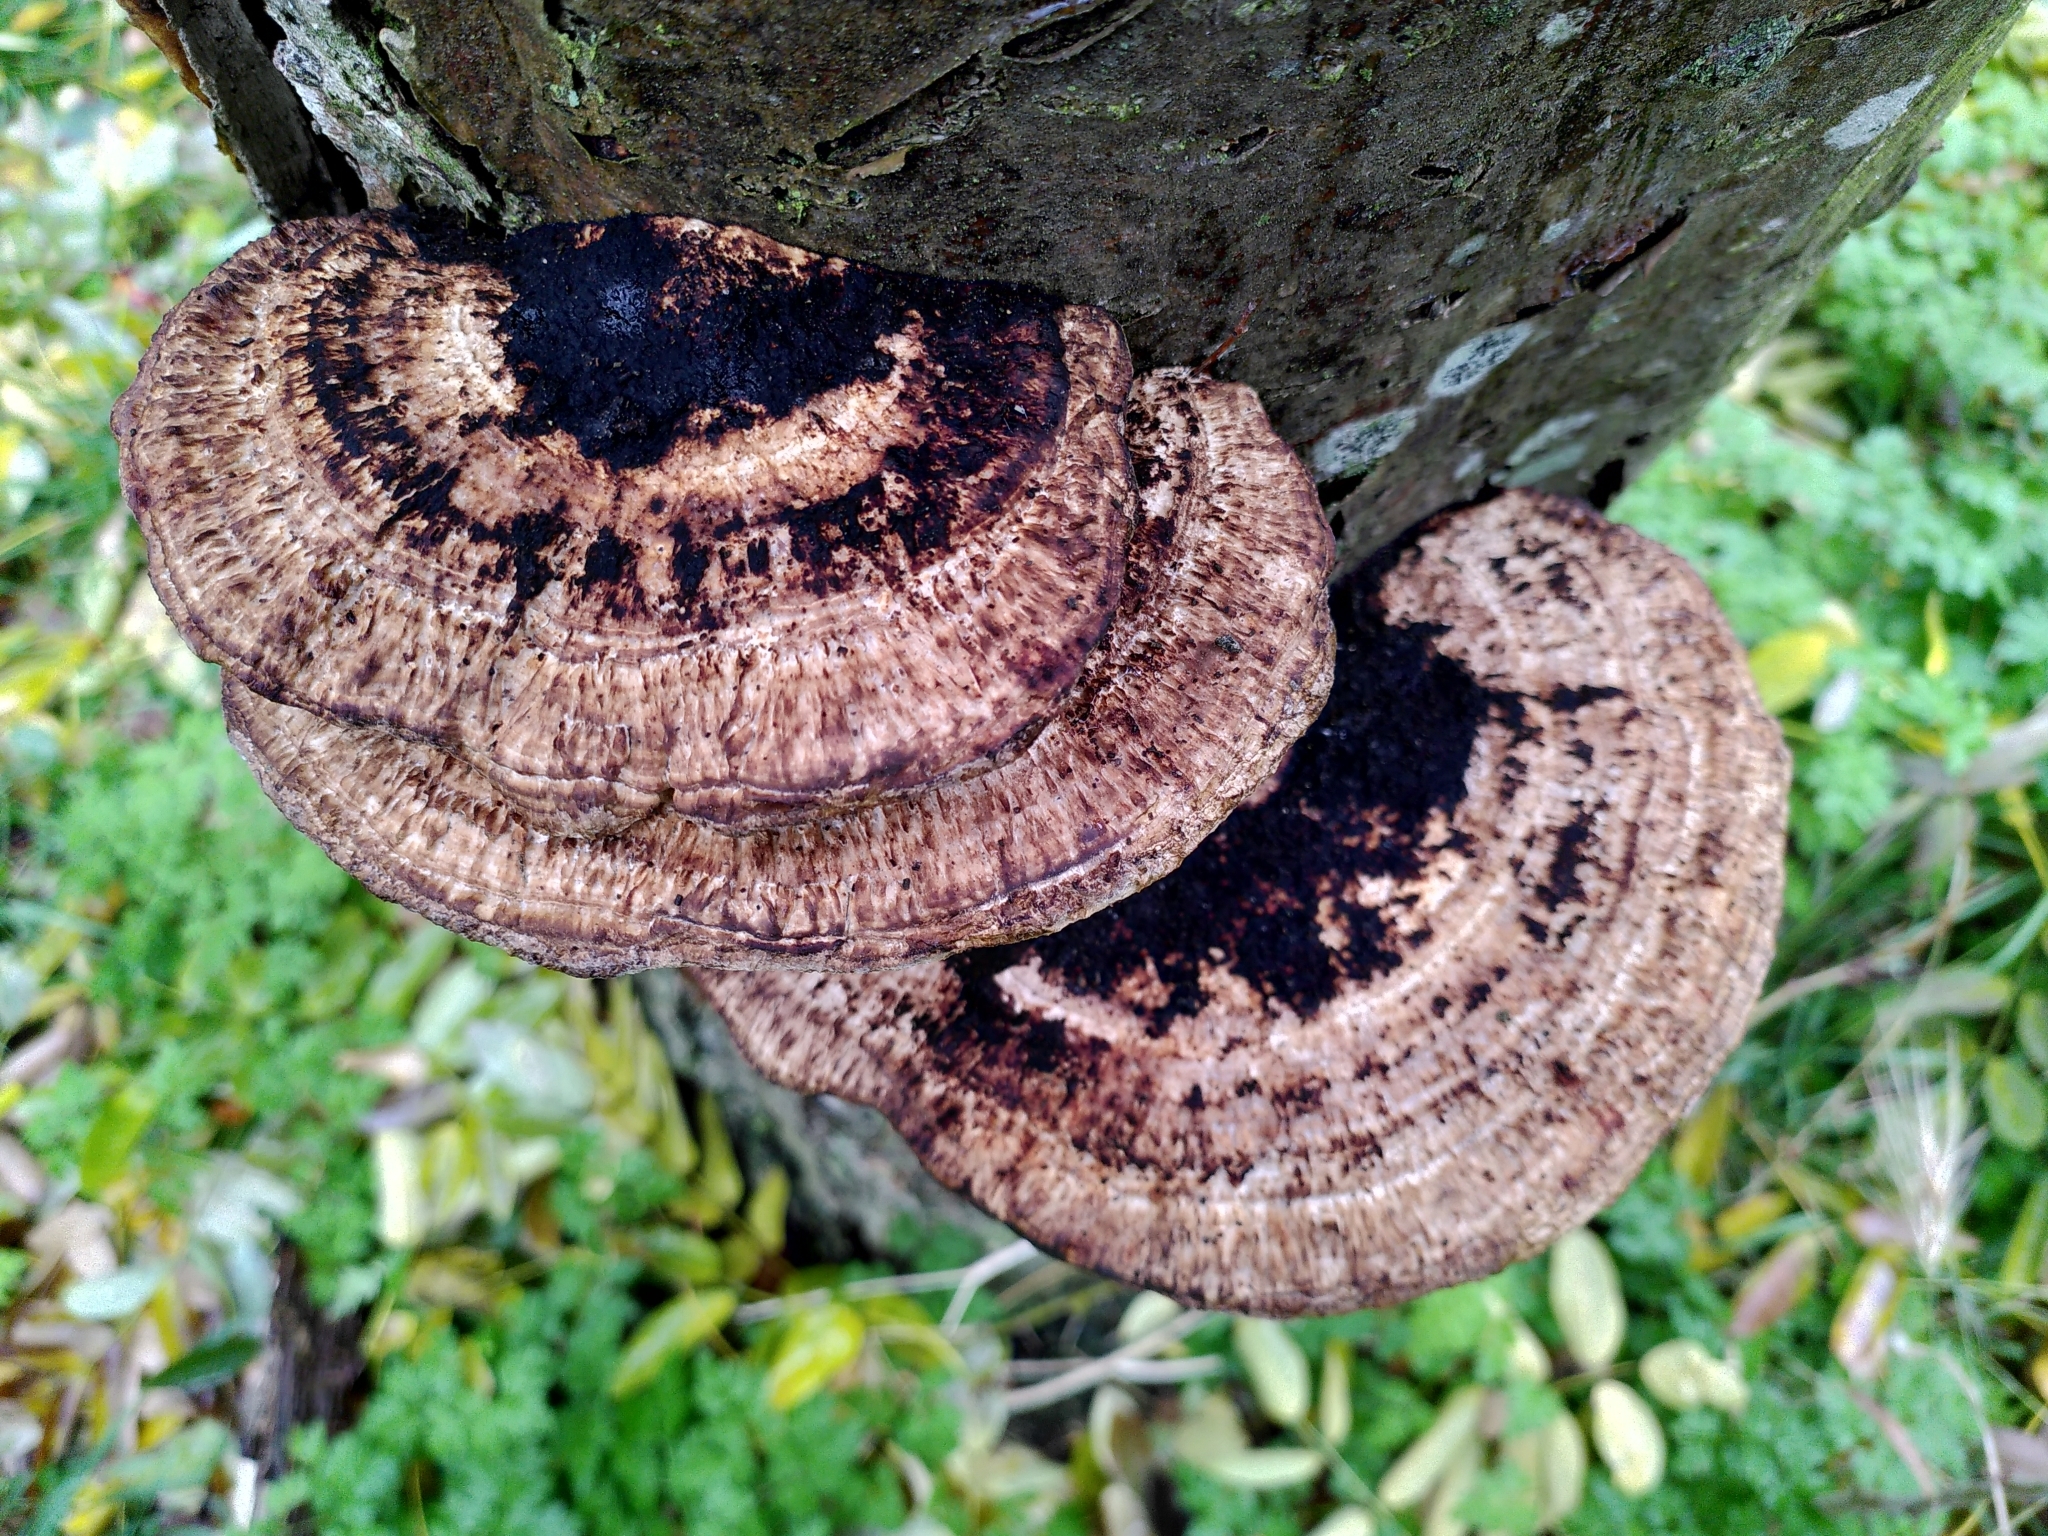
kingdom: Fungi
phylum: Basidiomycota
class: Agaricomycetes
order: Polyporales
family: Polyporaceae
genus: Daedaleopsis
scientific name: Daedaleopsis confragosa
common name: Blushing bracket
